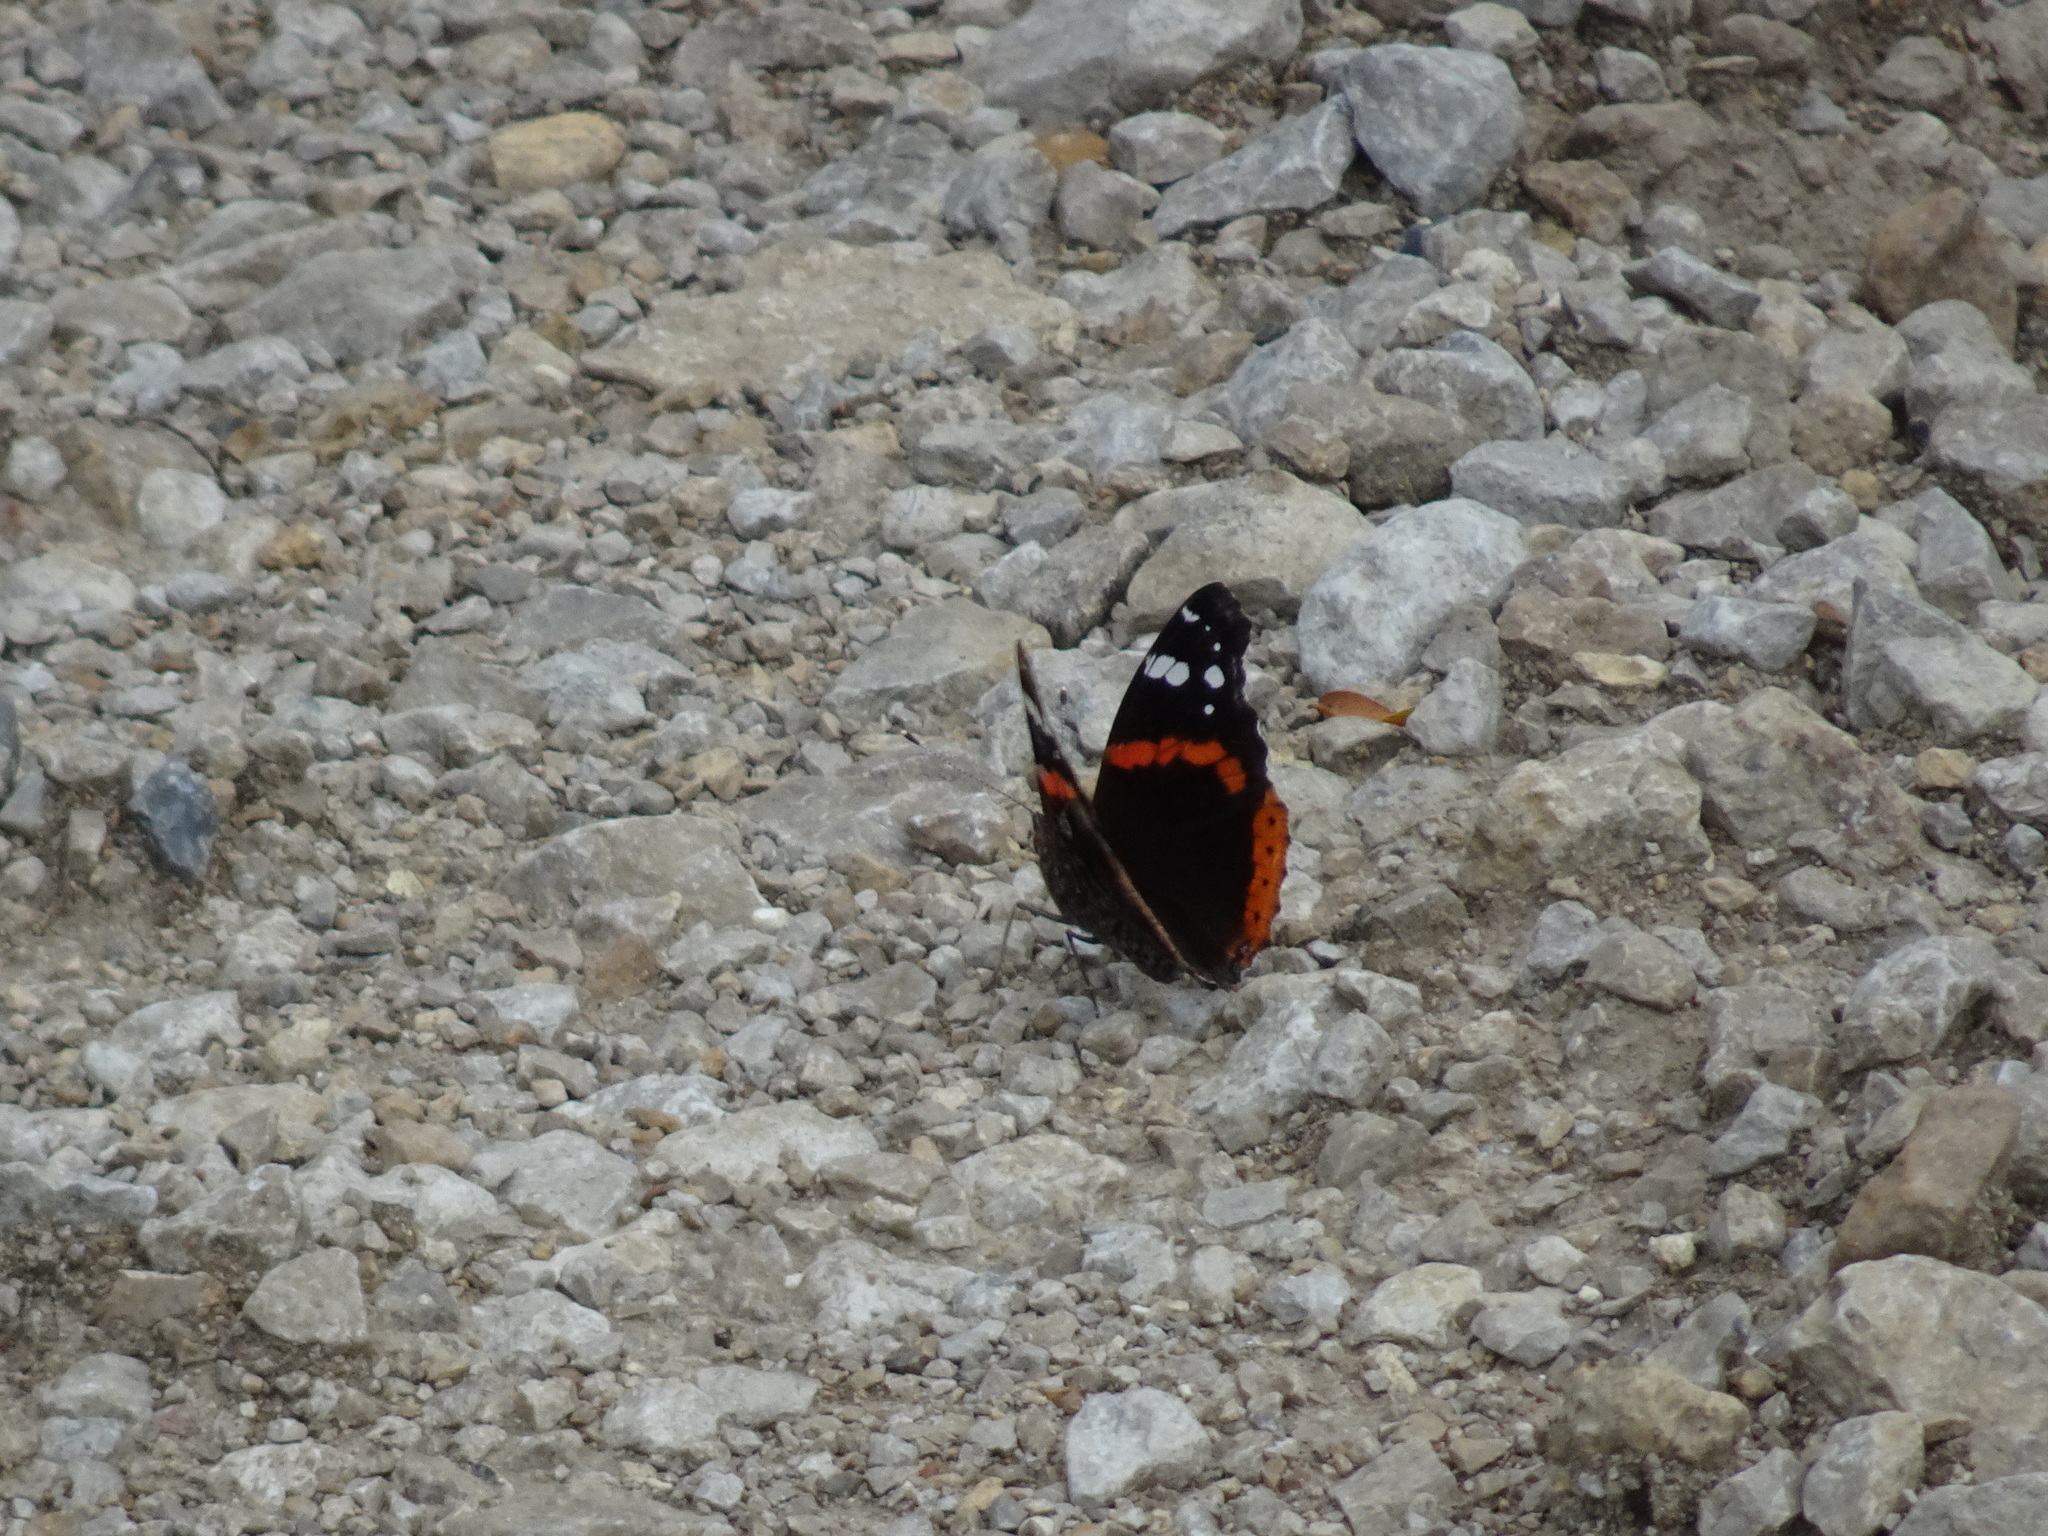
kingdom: Animalia
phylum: Arthropoda
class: Insecta
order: Lepidoptera
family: Nymphalidae
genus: Vanessa
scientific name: Vanessa atalanta
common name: Red admiral
